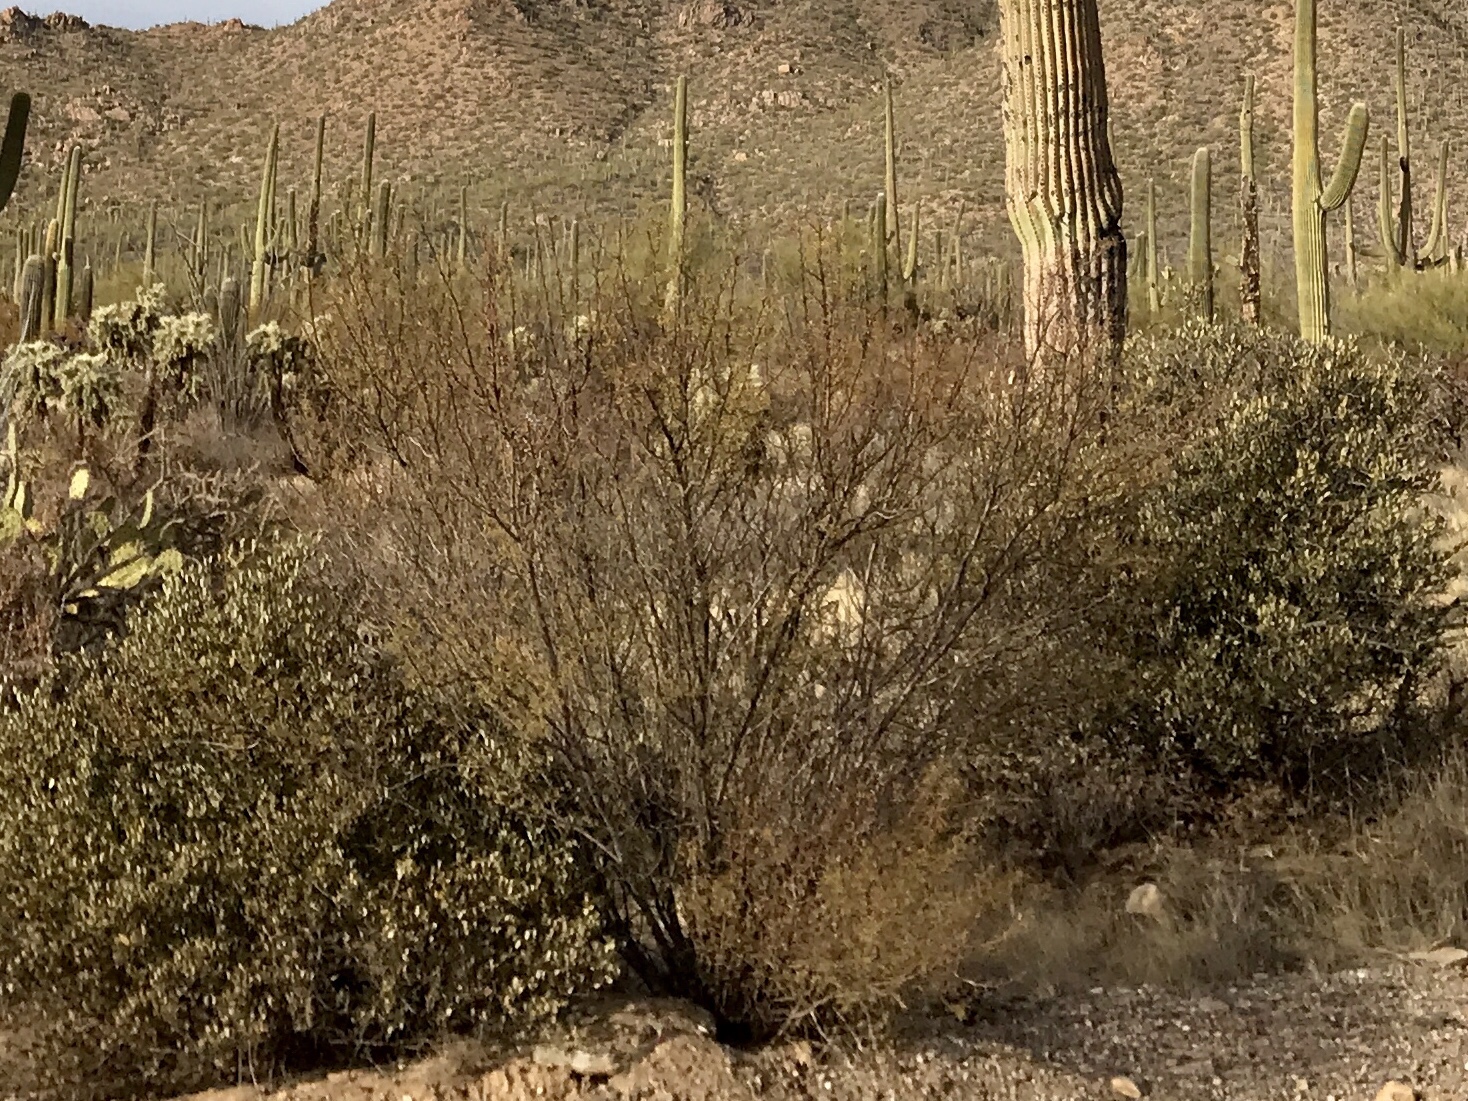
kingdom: Plantae
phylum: Tracheophyta
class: Magnoliopsida
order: Fabales
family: Fabaceae
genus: Parkinsonia
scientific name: Parkinsonia microphylla
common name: Yellow paloverde
